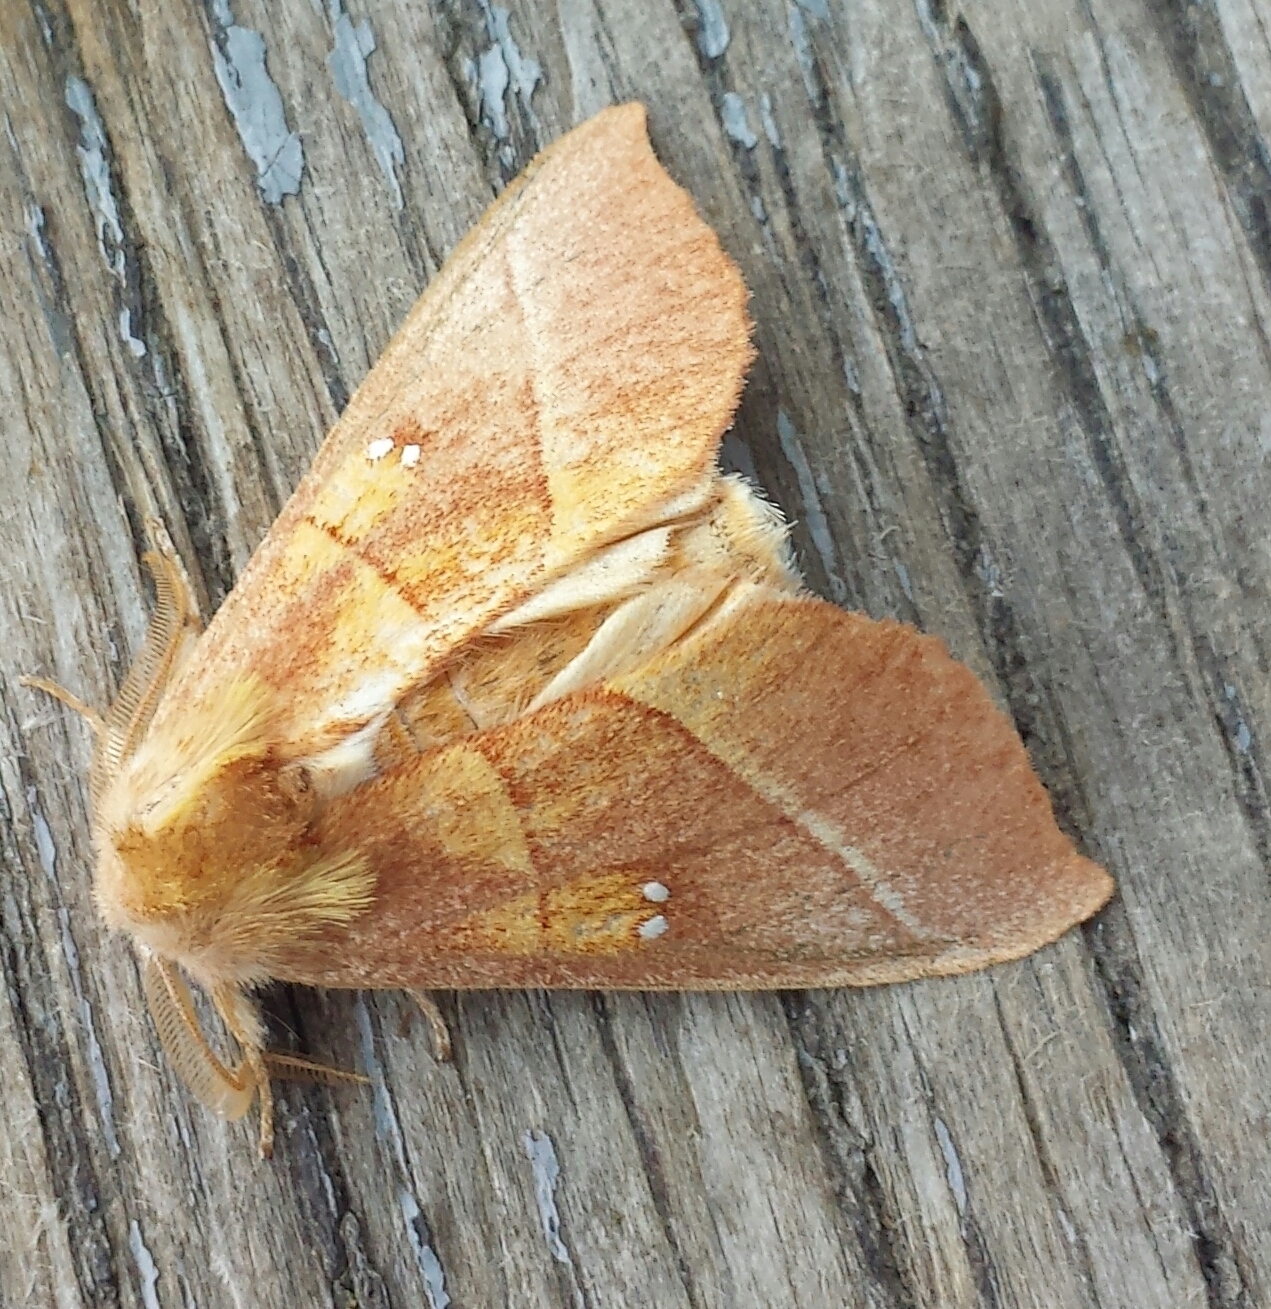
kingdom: Animalia
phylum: Arthropoda
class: Insecta
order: Lepidoptera
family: Notodontidae
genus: Nadata
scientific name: Nadata gibbosa
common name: White-dotted prominent
